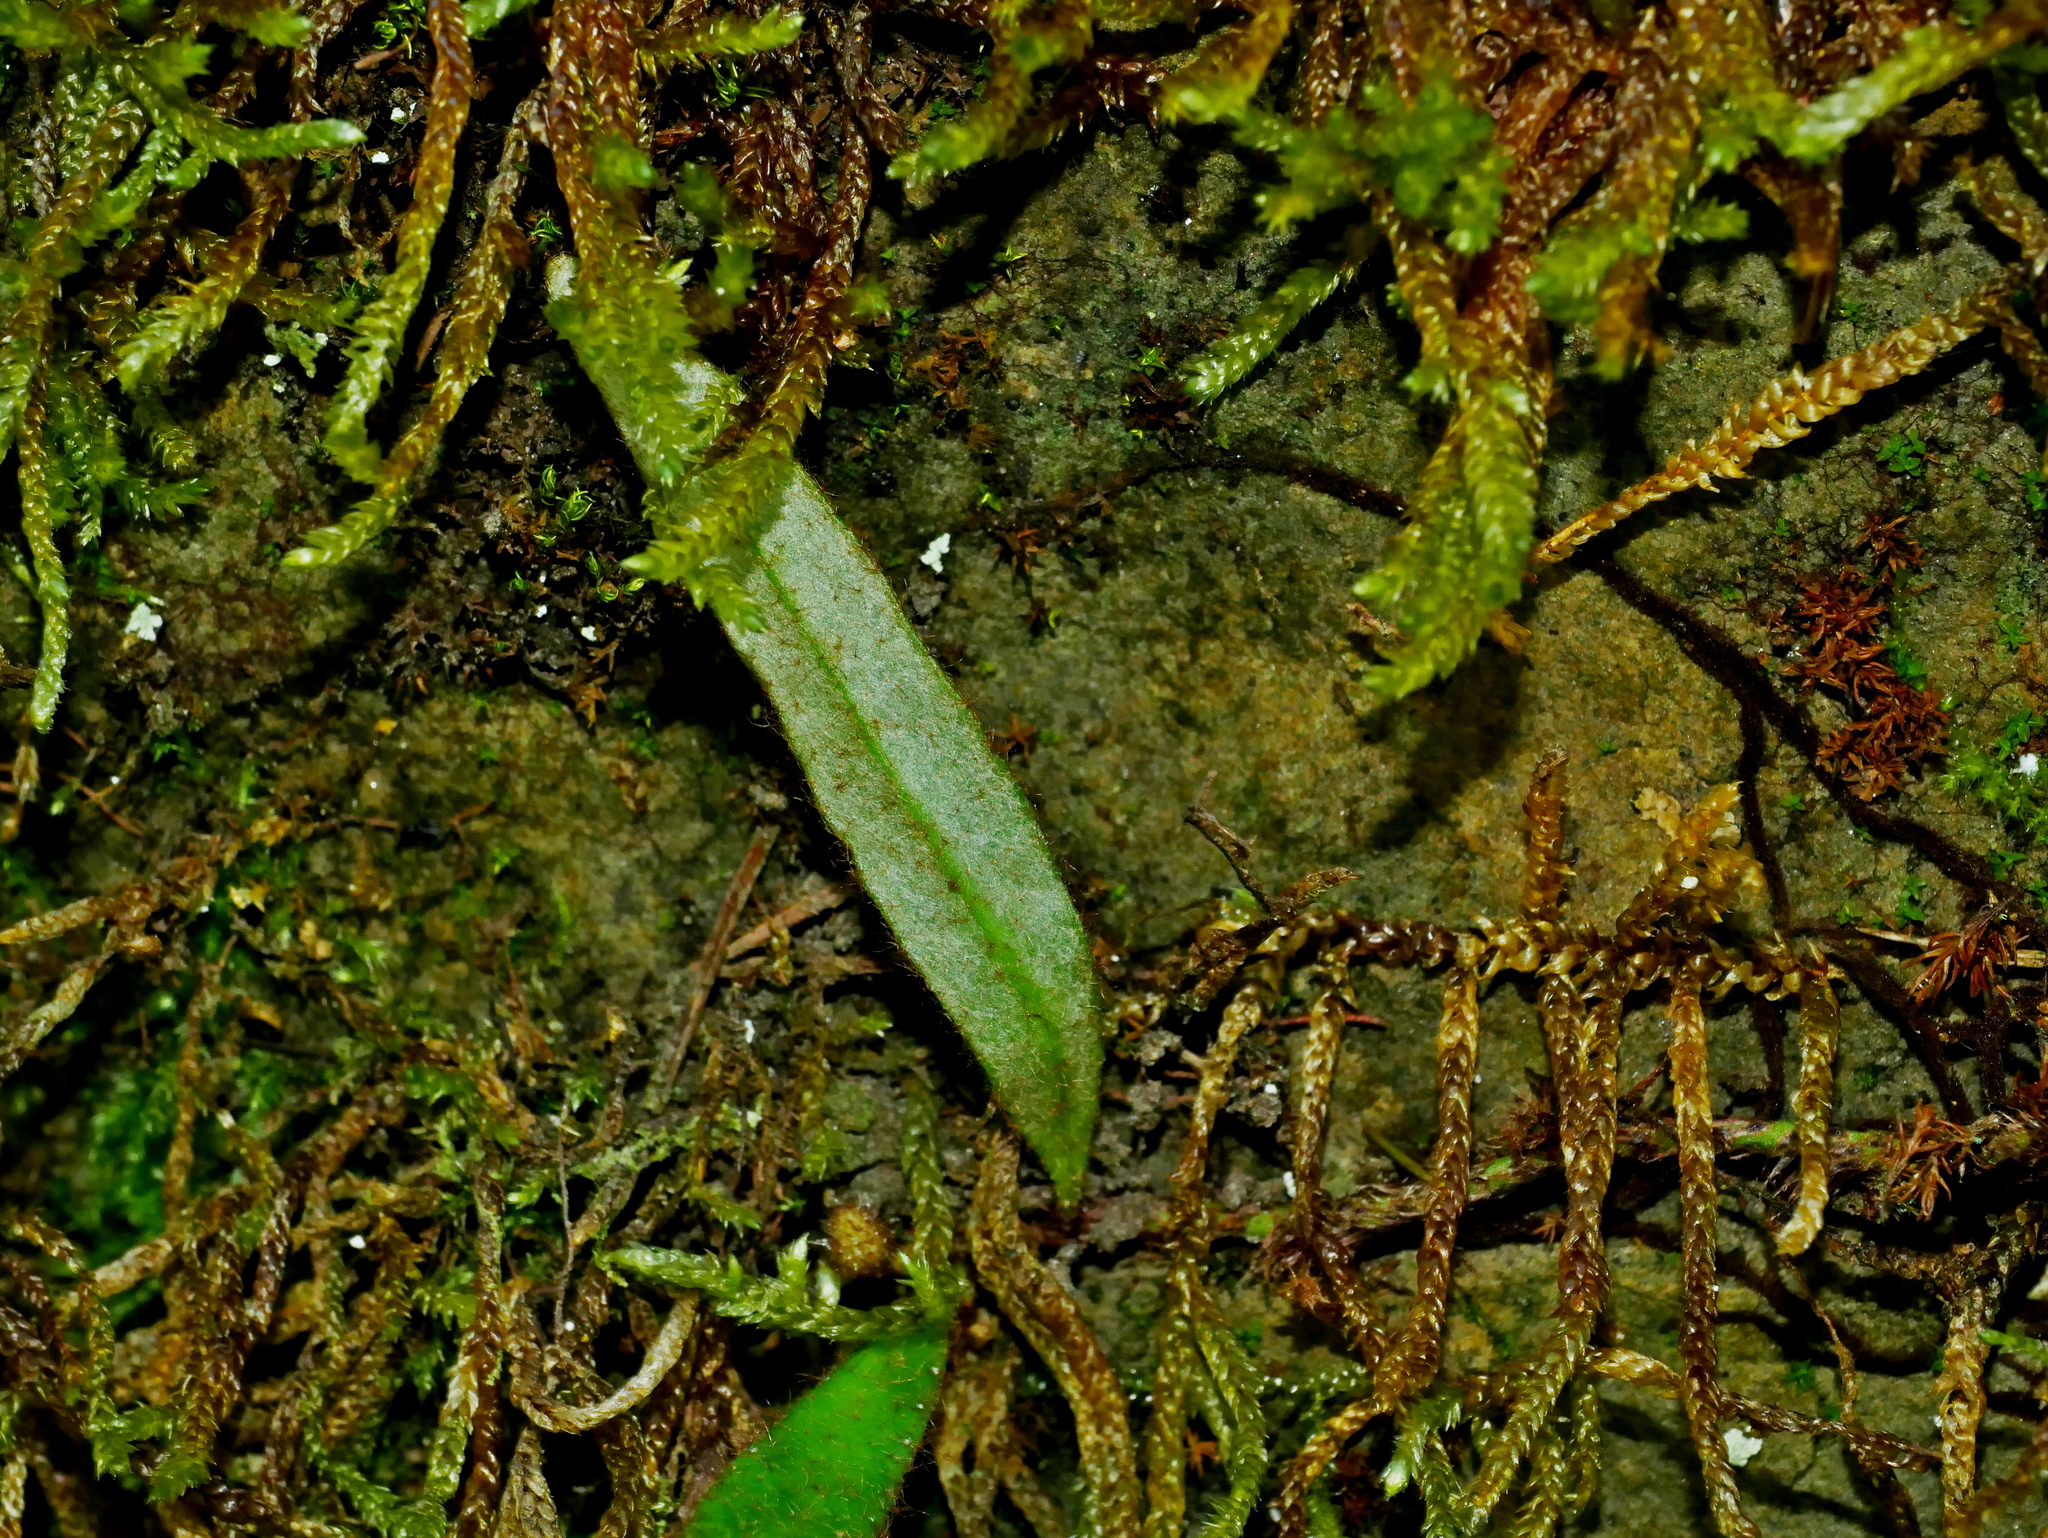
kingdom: Plantae
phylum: Tracheophyta
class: Polypodiopsida
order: Polypodiales
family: Polypodiaceae
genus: Pyrrosia
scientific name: Pyrrosia linearifolia
